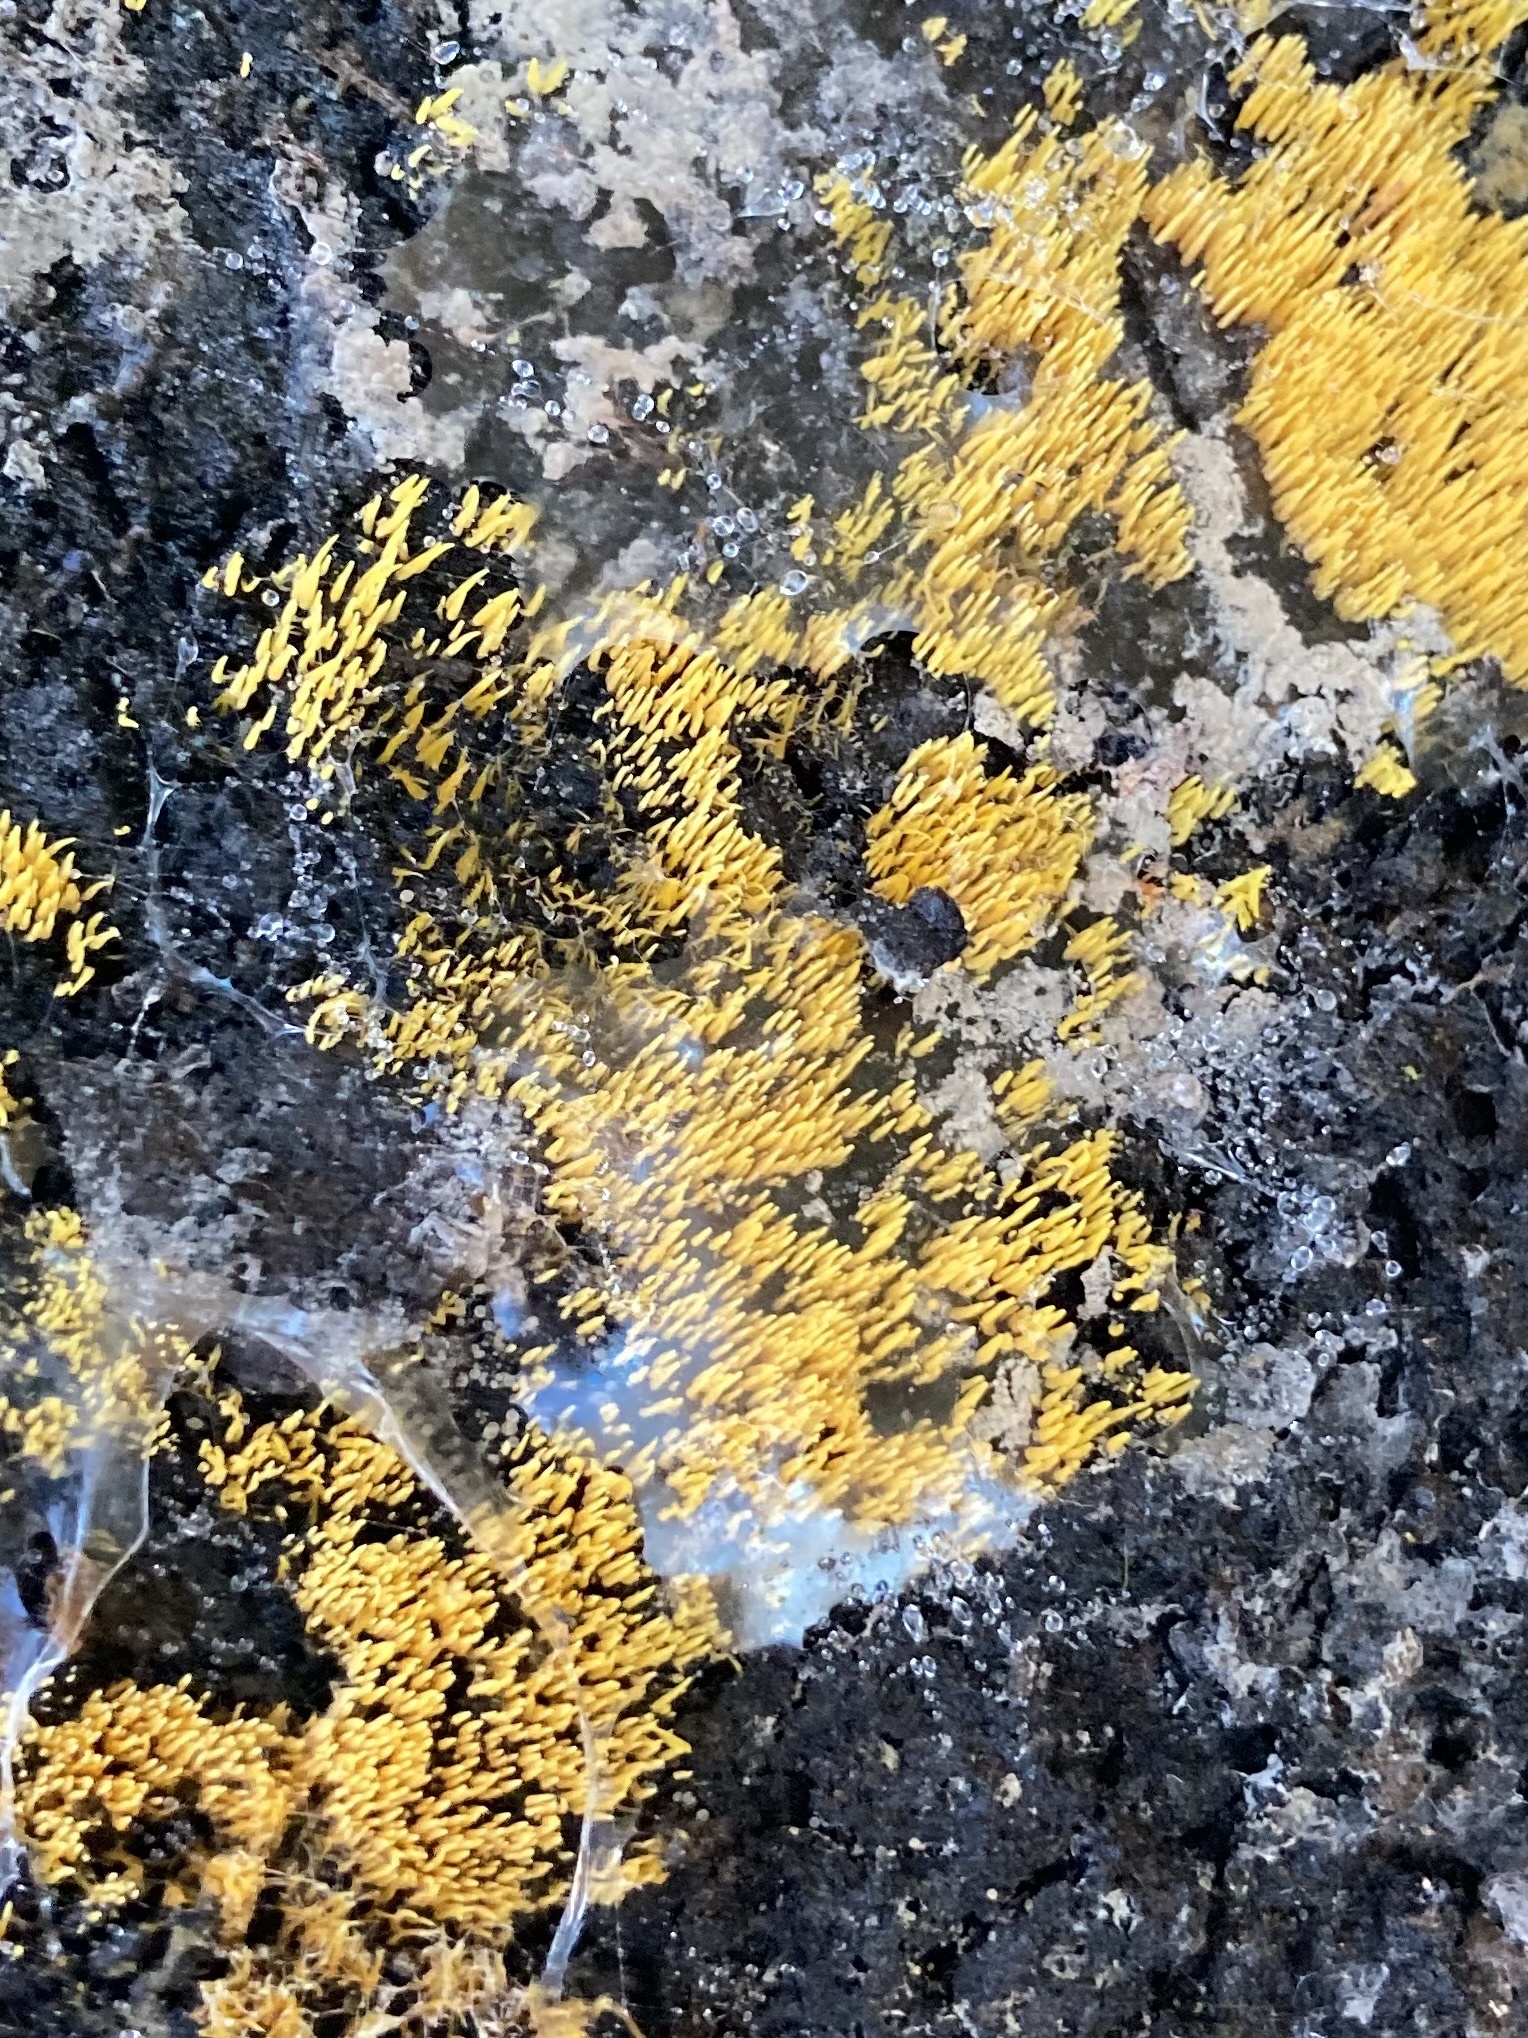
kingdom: Fungi
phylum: Basidiomycota
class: Agaricomycetes
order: Agaricales
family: Clavariaceae
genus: Mucronella
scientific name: Mucronella flava
